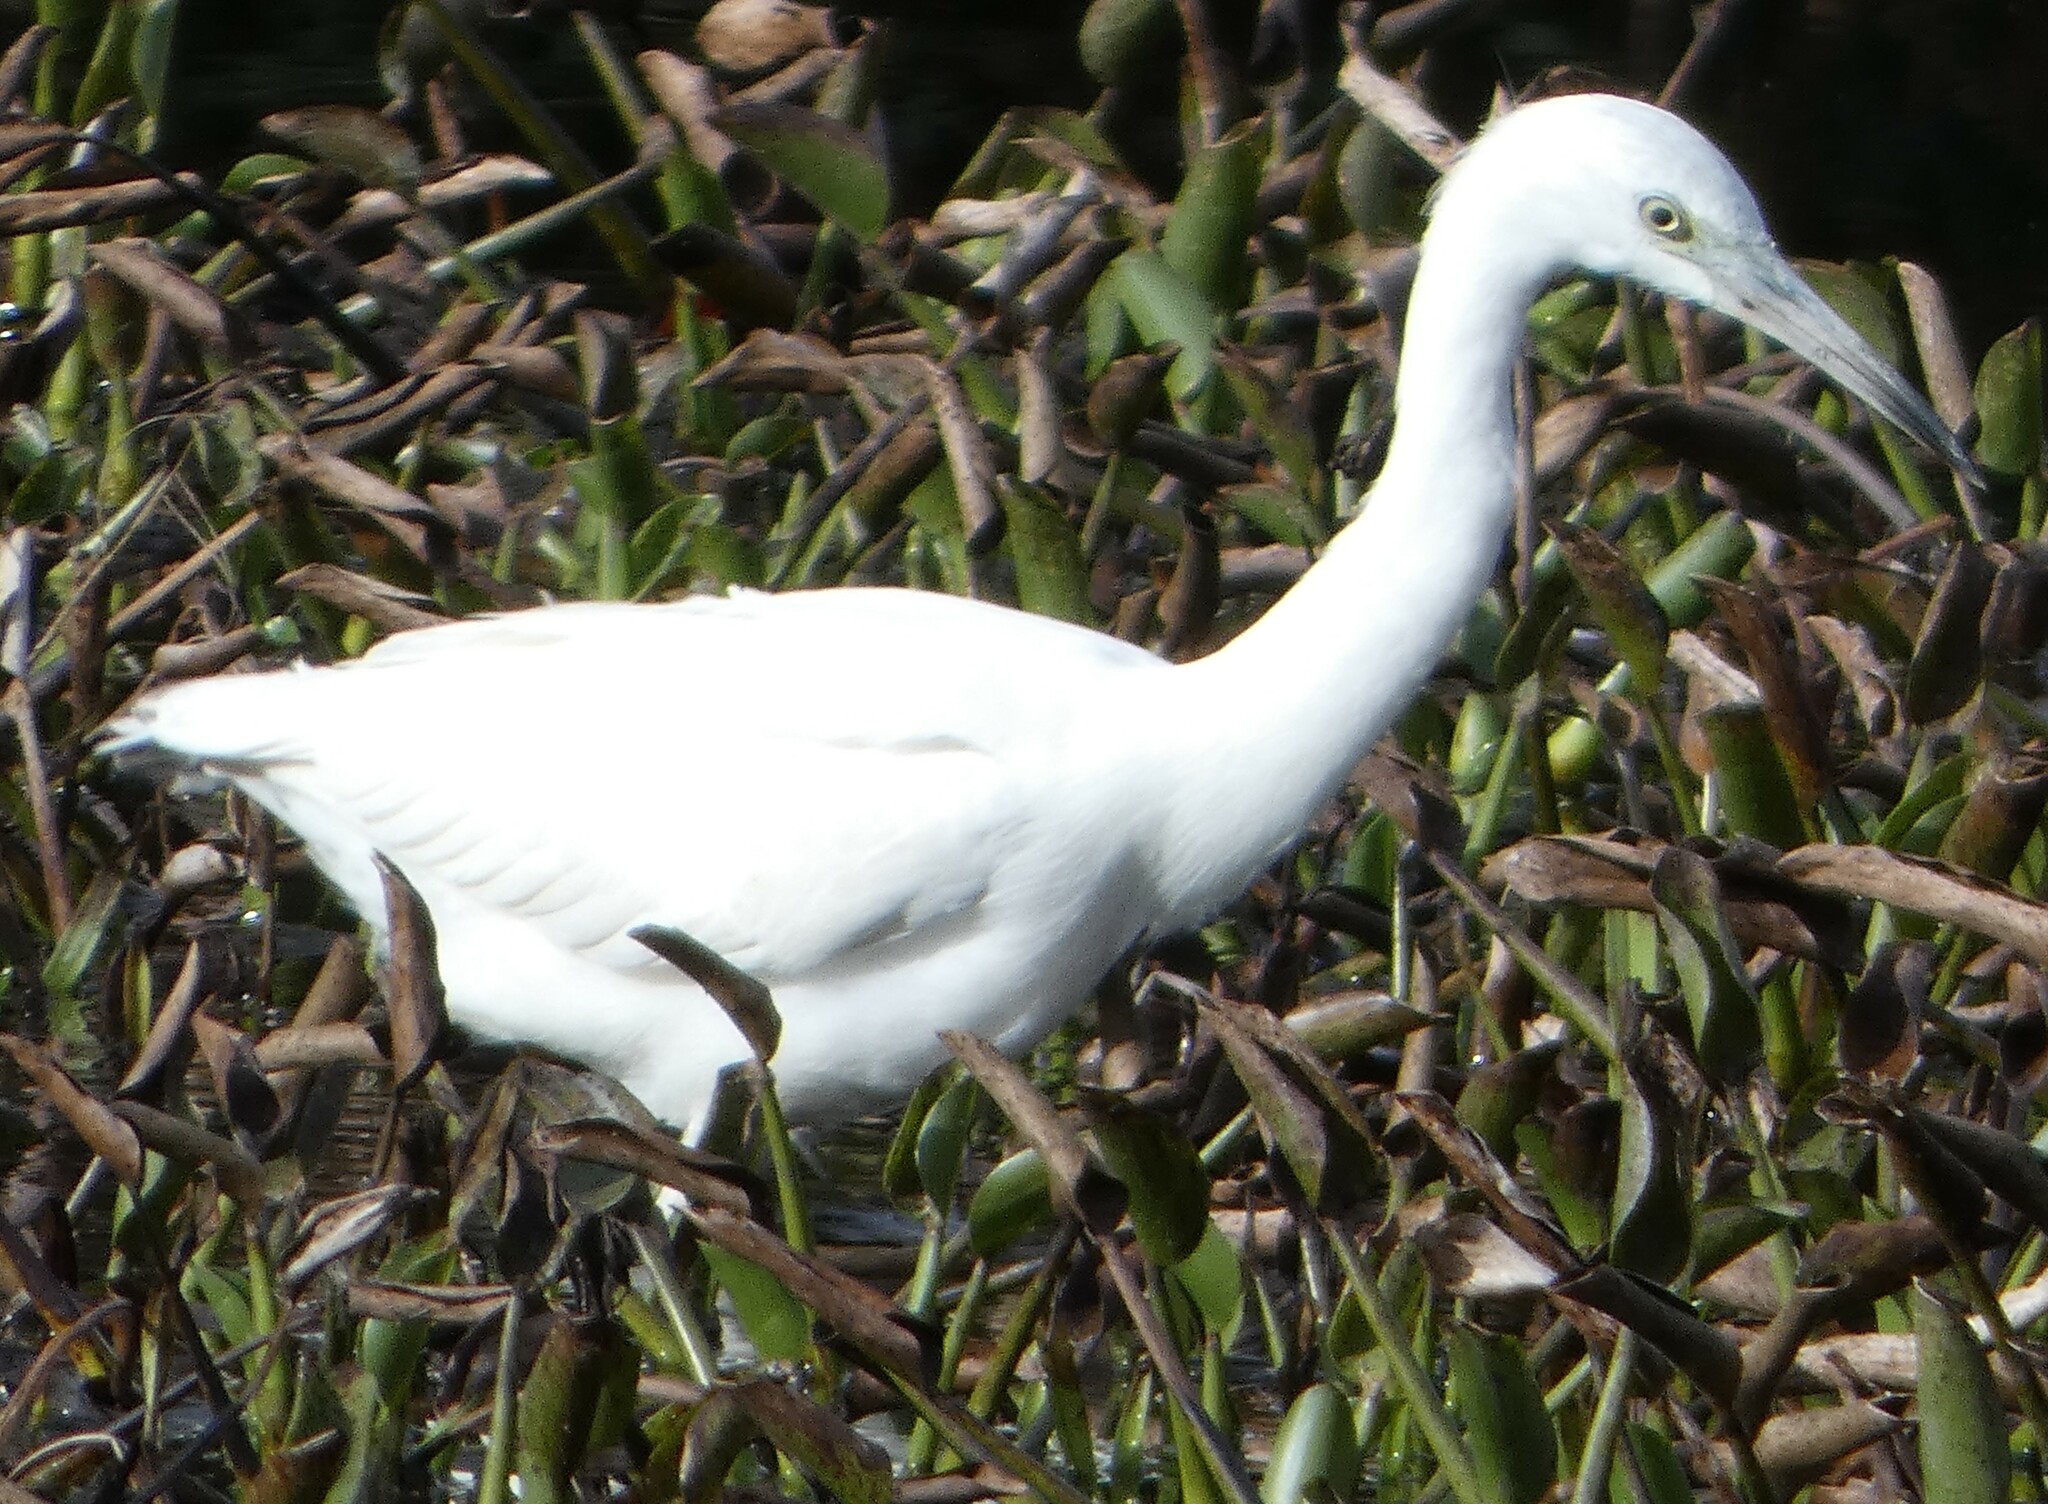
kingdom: Animalia
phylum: Chordata
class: Aves
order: Pelecaniformes
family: Ardeidae
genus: Egretta
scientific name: Egretta caerulea
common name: Little blue heron
